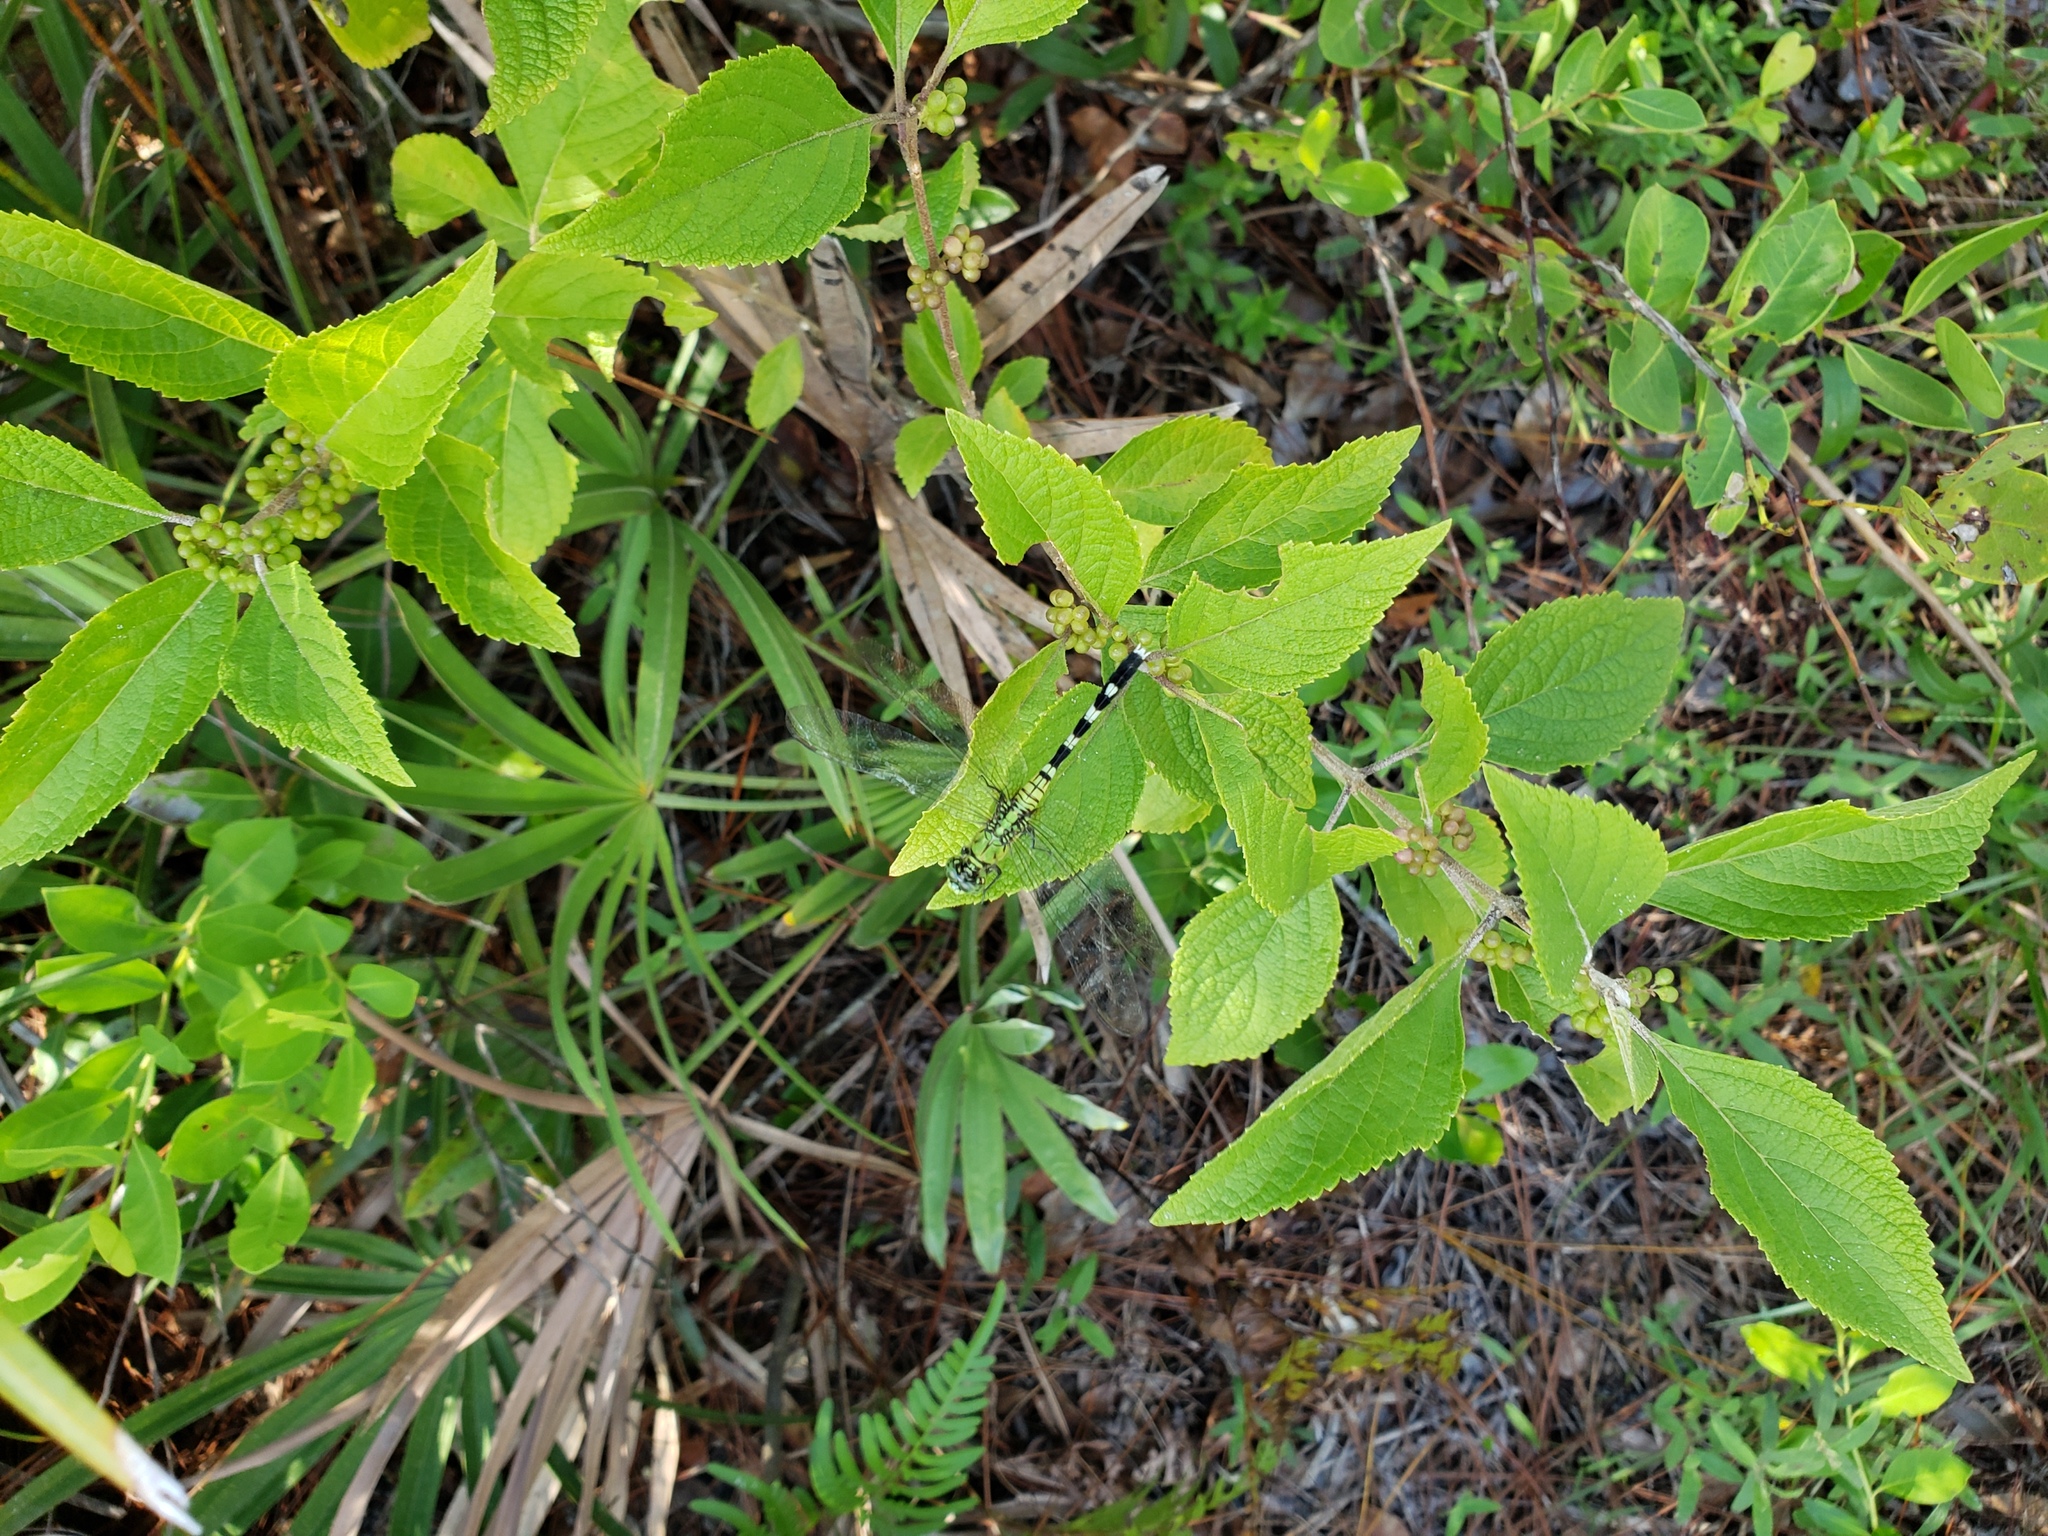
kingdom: Plantae
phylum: Tracheophyta
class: Magnoliopsida
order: Lamiales
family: Lamiaceae
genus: Callicarpa
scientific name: Callicarpa americana
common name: American beautyberry
